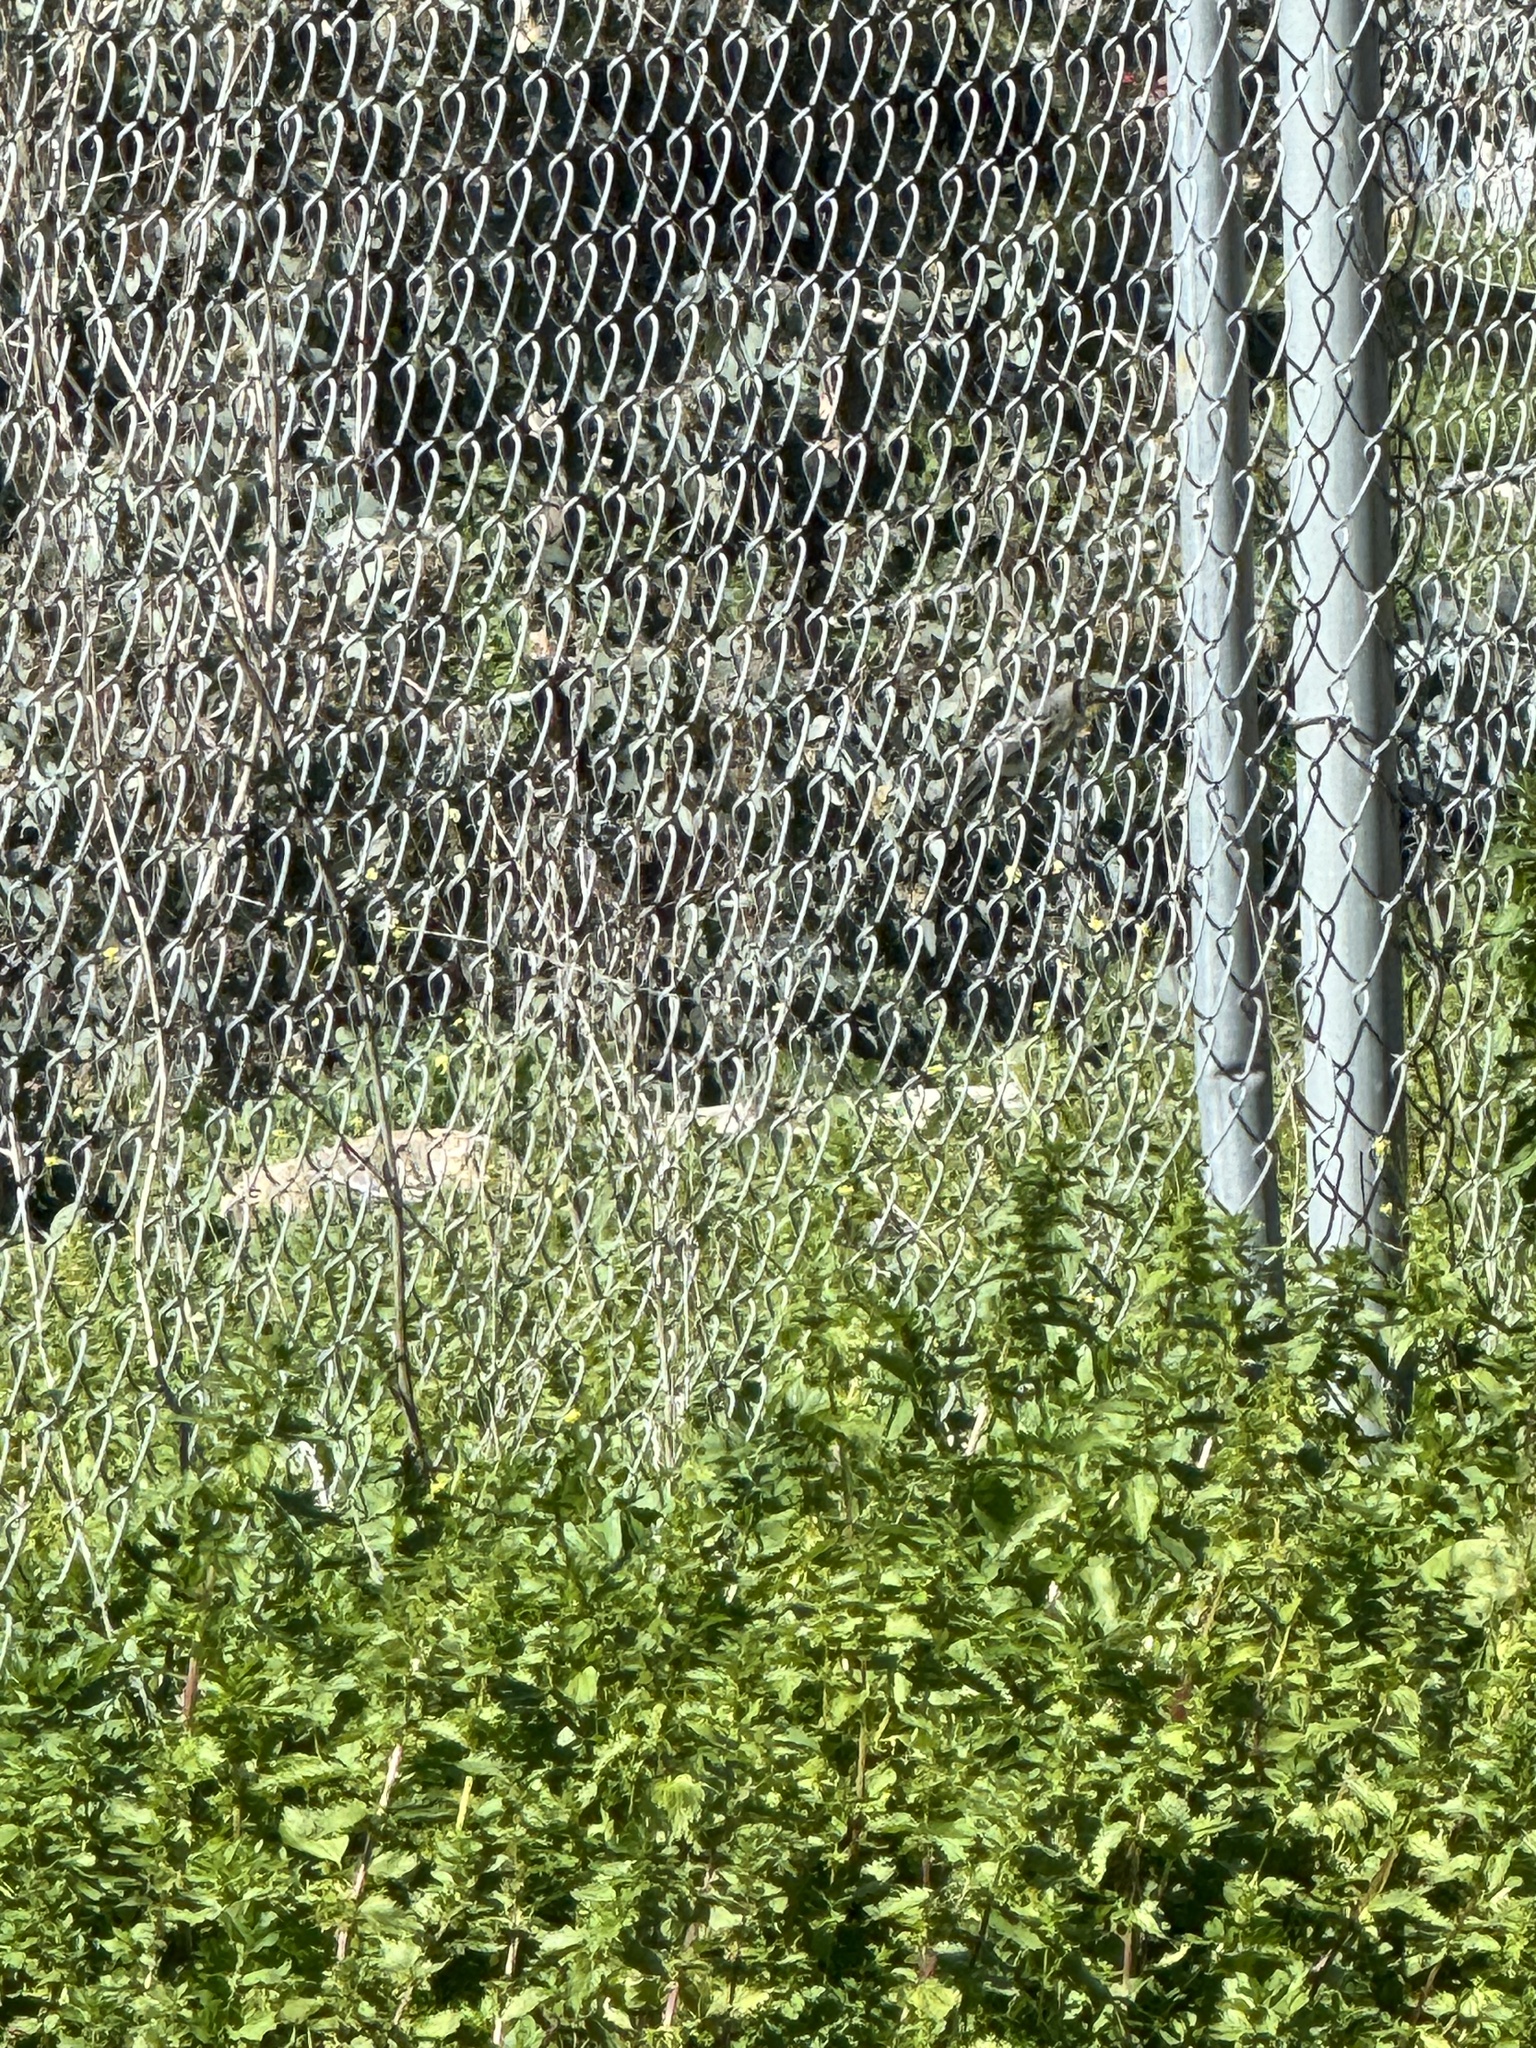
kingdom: Animalia
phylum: Chordata
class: Aves
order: Passeriformes
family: Parulidae
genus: Setophaga
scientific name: Setophaga coronata
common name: Myrtle warbler
